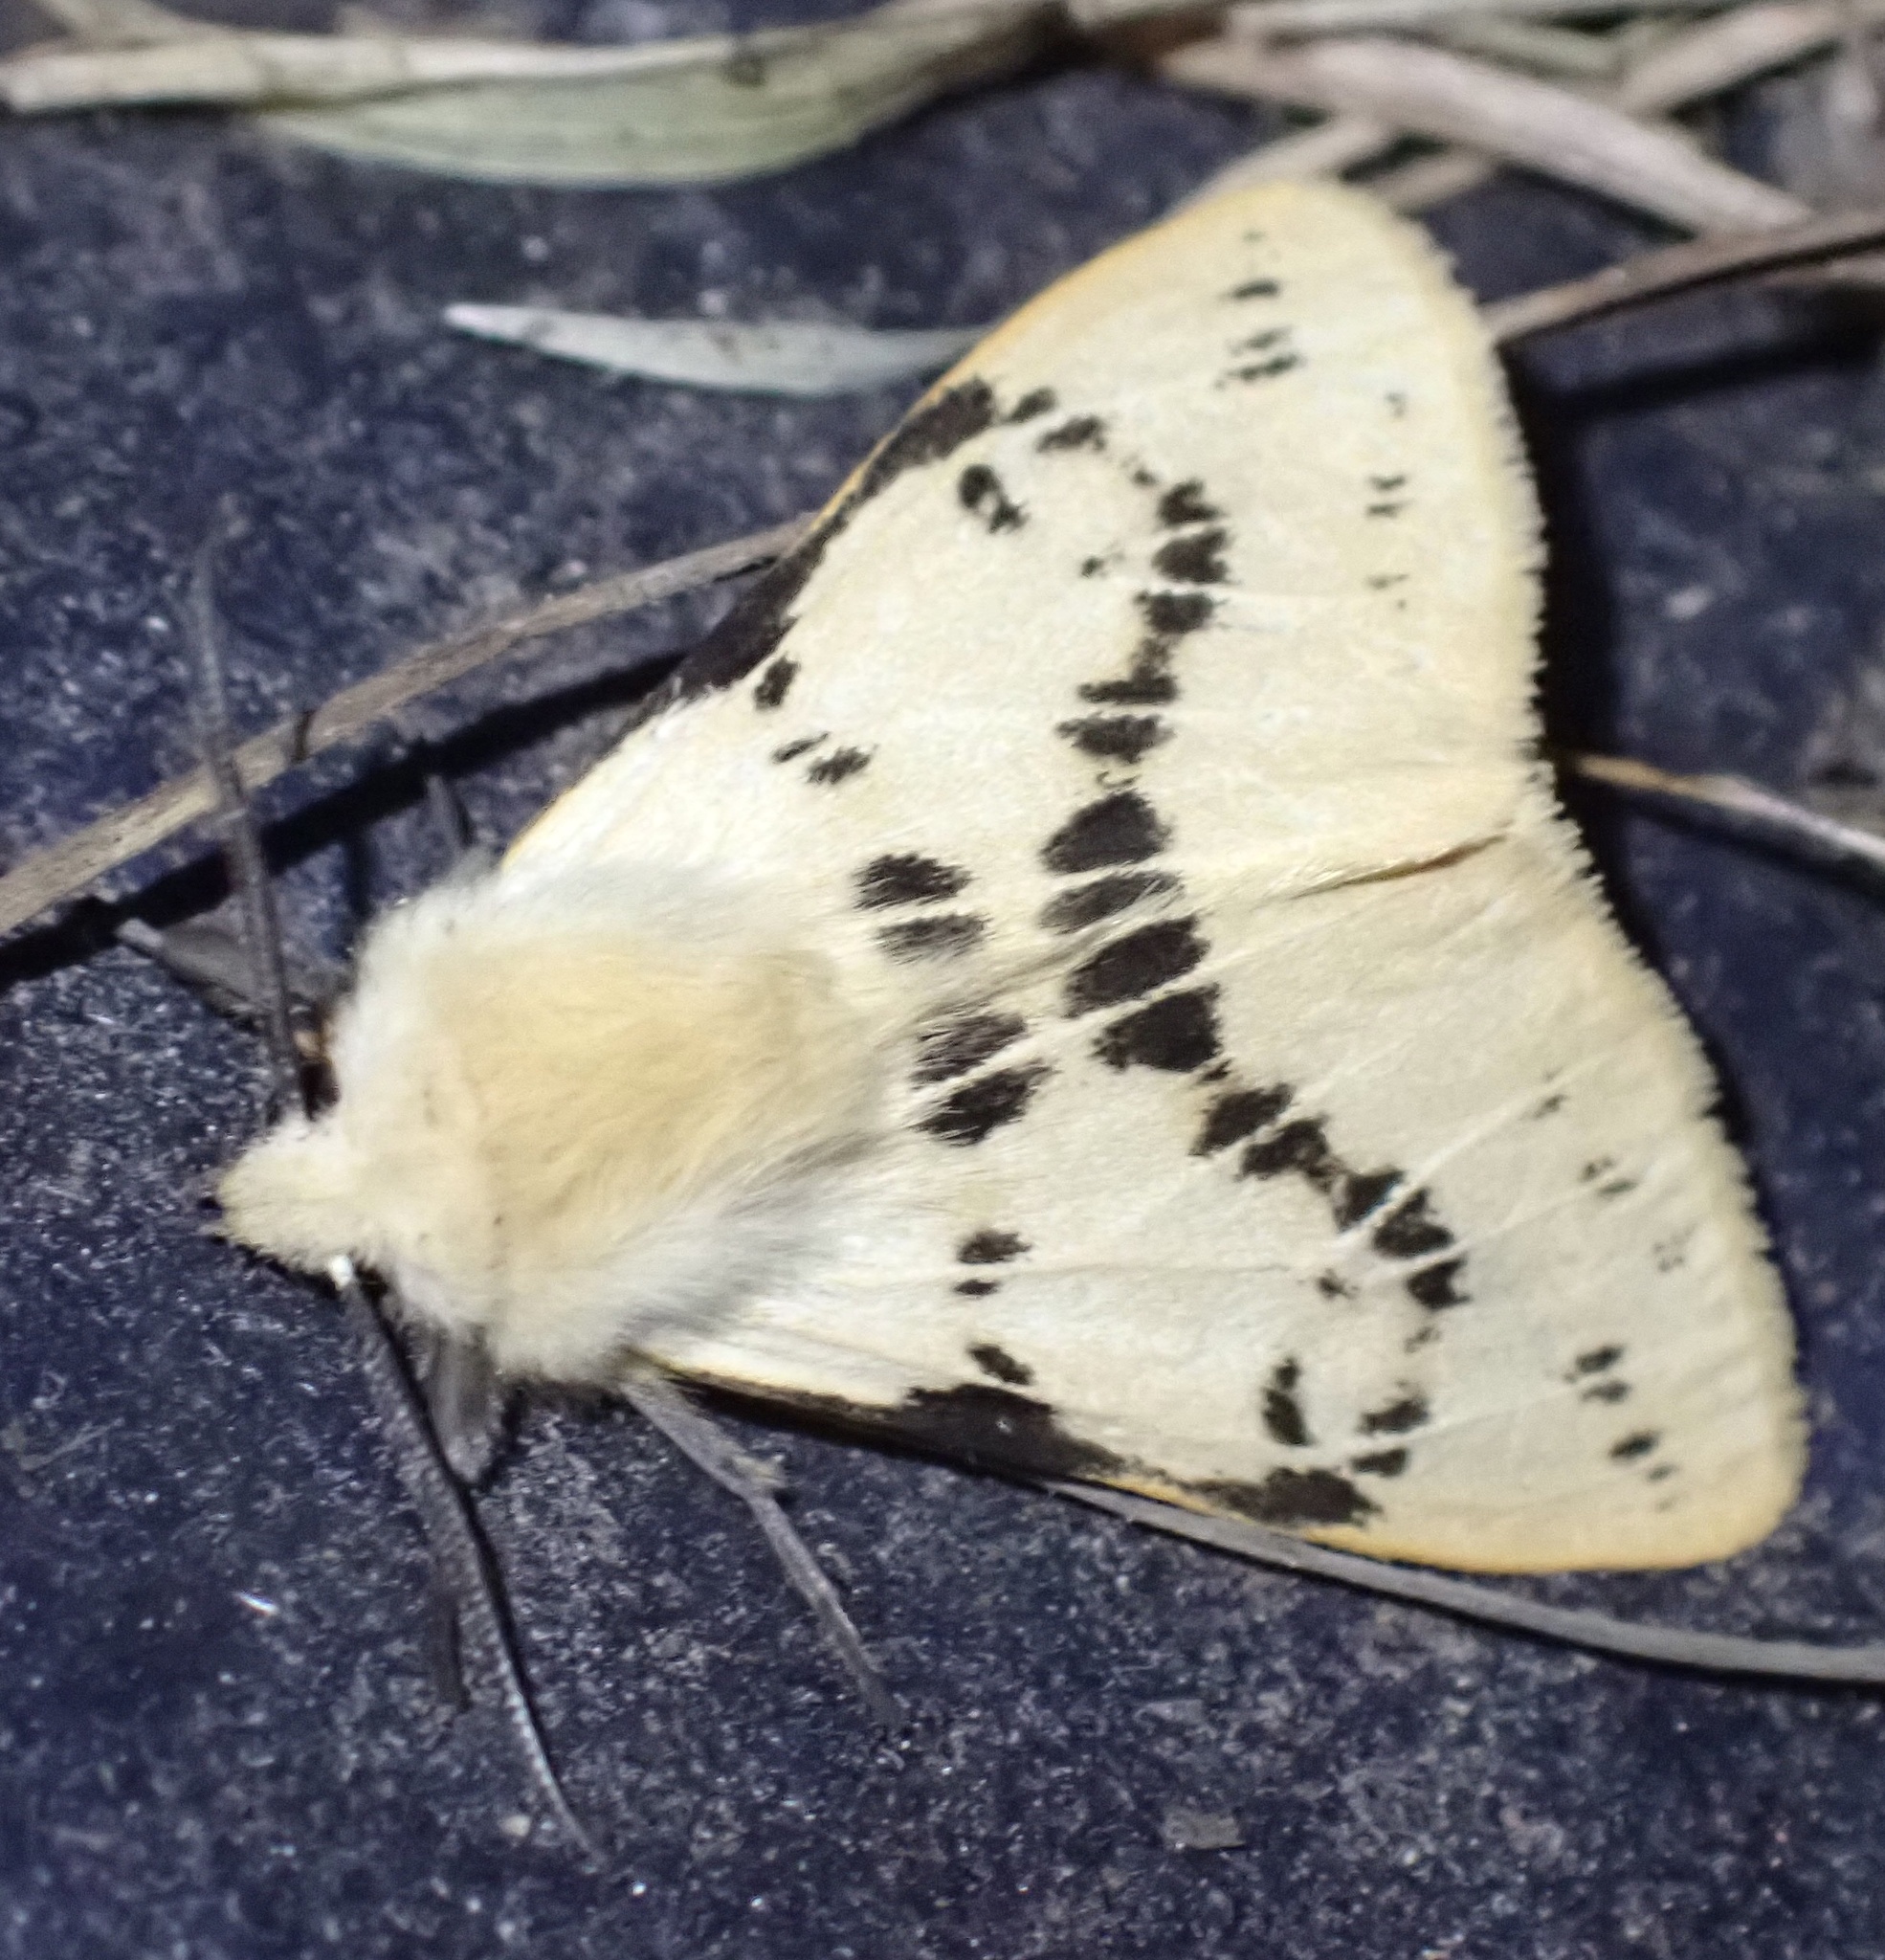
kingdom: Animalia
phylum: Arthropoda
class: Insecta
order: Lepidoptera
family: Erebidae
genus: Spilarctia
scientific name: Spilarctia lutea
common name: Buff ermine
